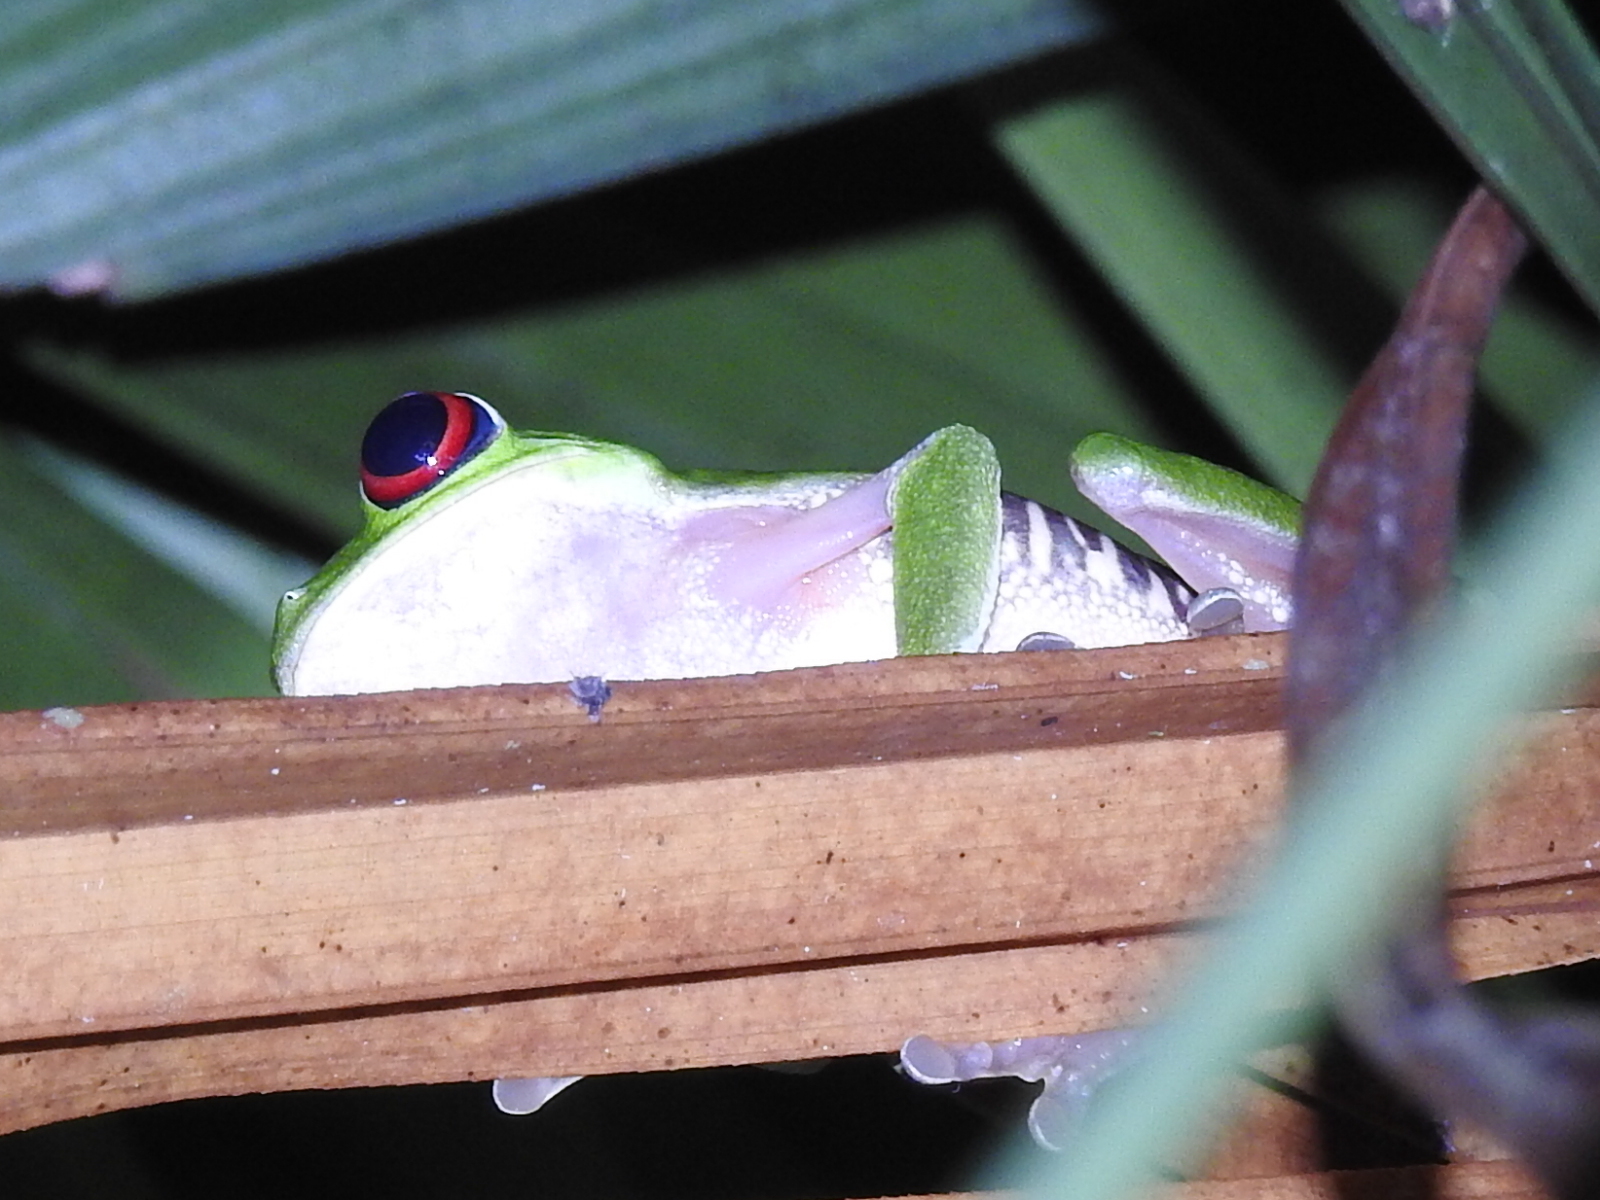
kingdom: Animalia
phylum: Chordata
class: Amphibia
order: Anura
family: Phyllomedusidae
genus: Agalychnis
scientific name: Agalychnis callidryas
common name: Red-eyed treefrog
